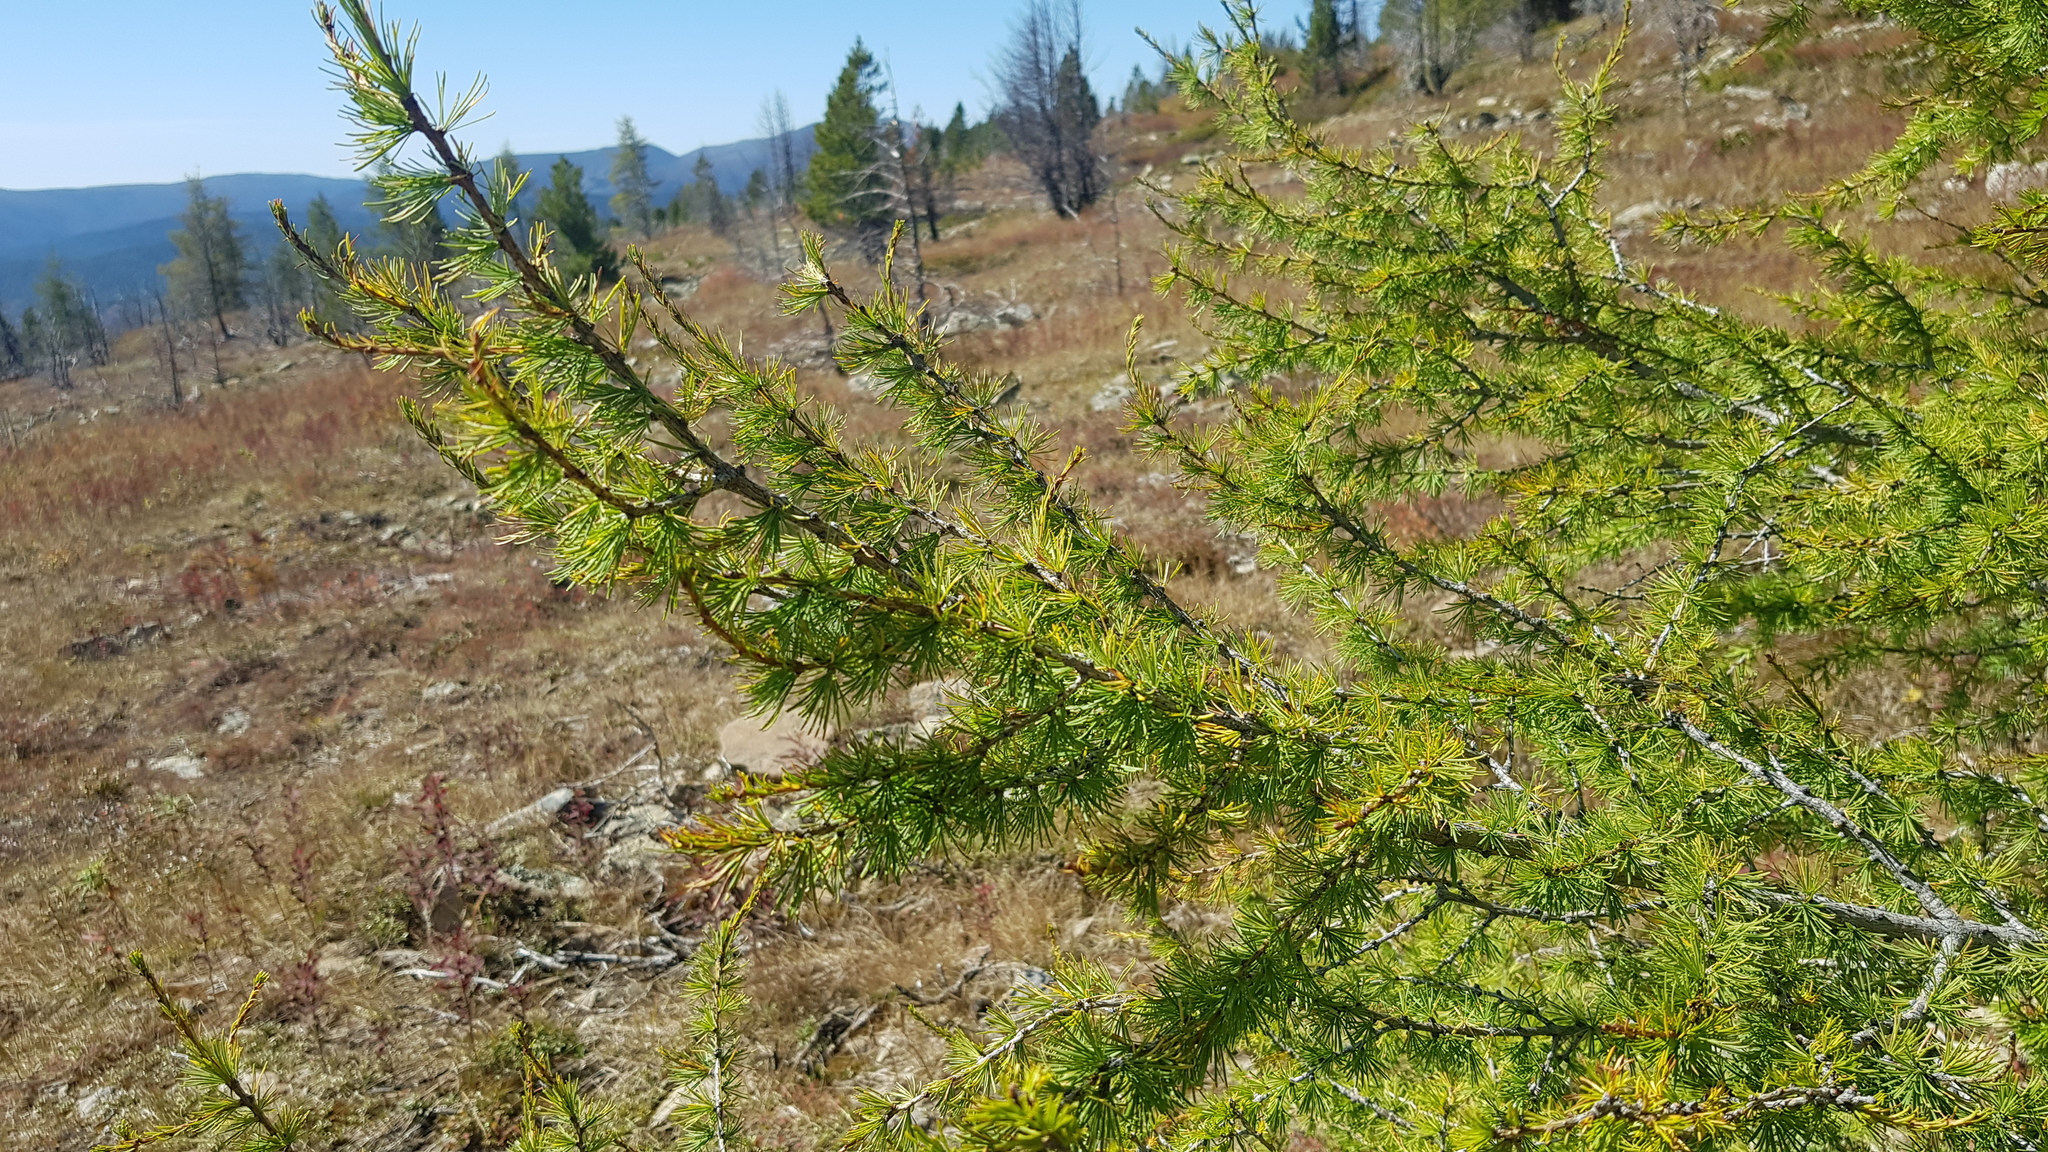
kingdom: Plantae
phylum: Tracheophyta
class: Pinopsida
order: Pinales
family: Pinaceae
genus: Larix
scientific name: Larix sibirica
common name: Siberian larch
